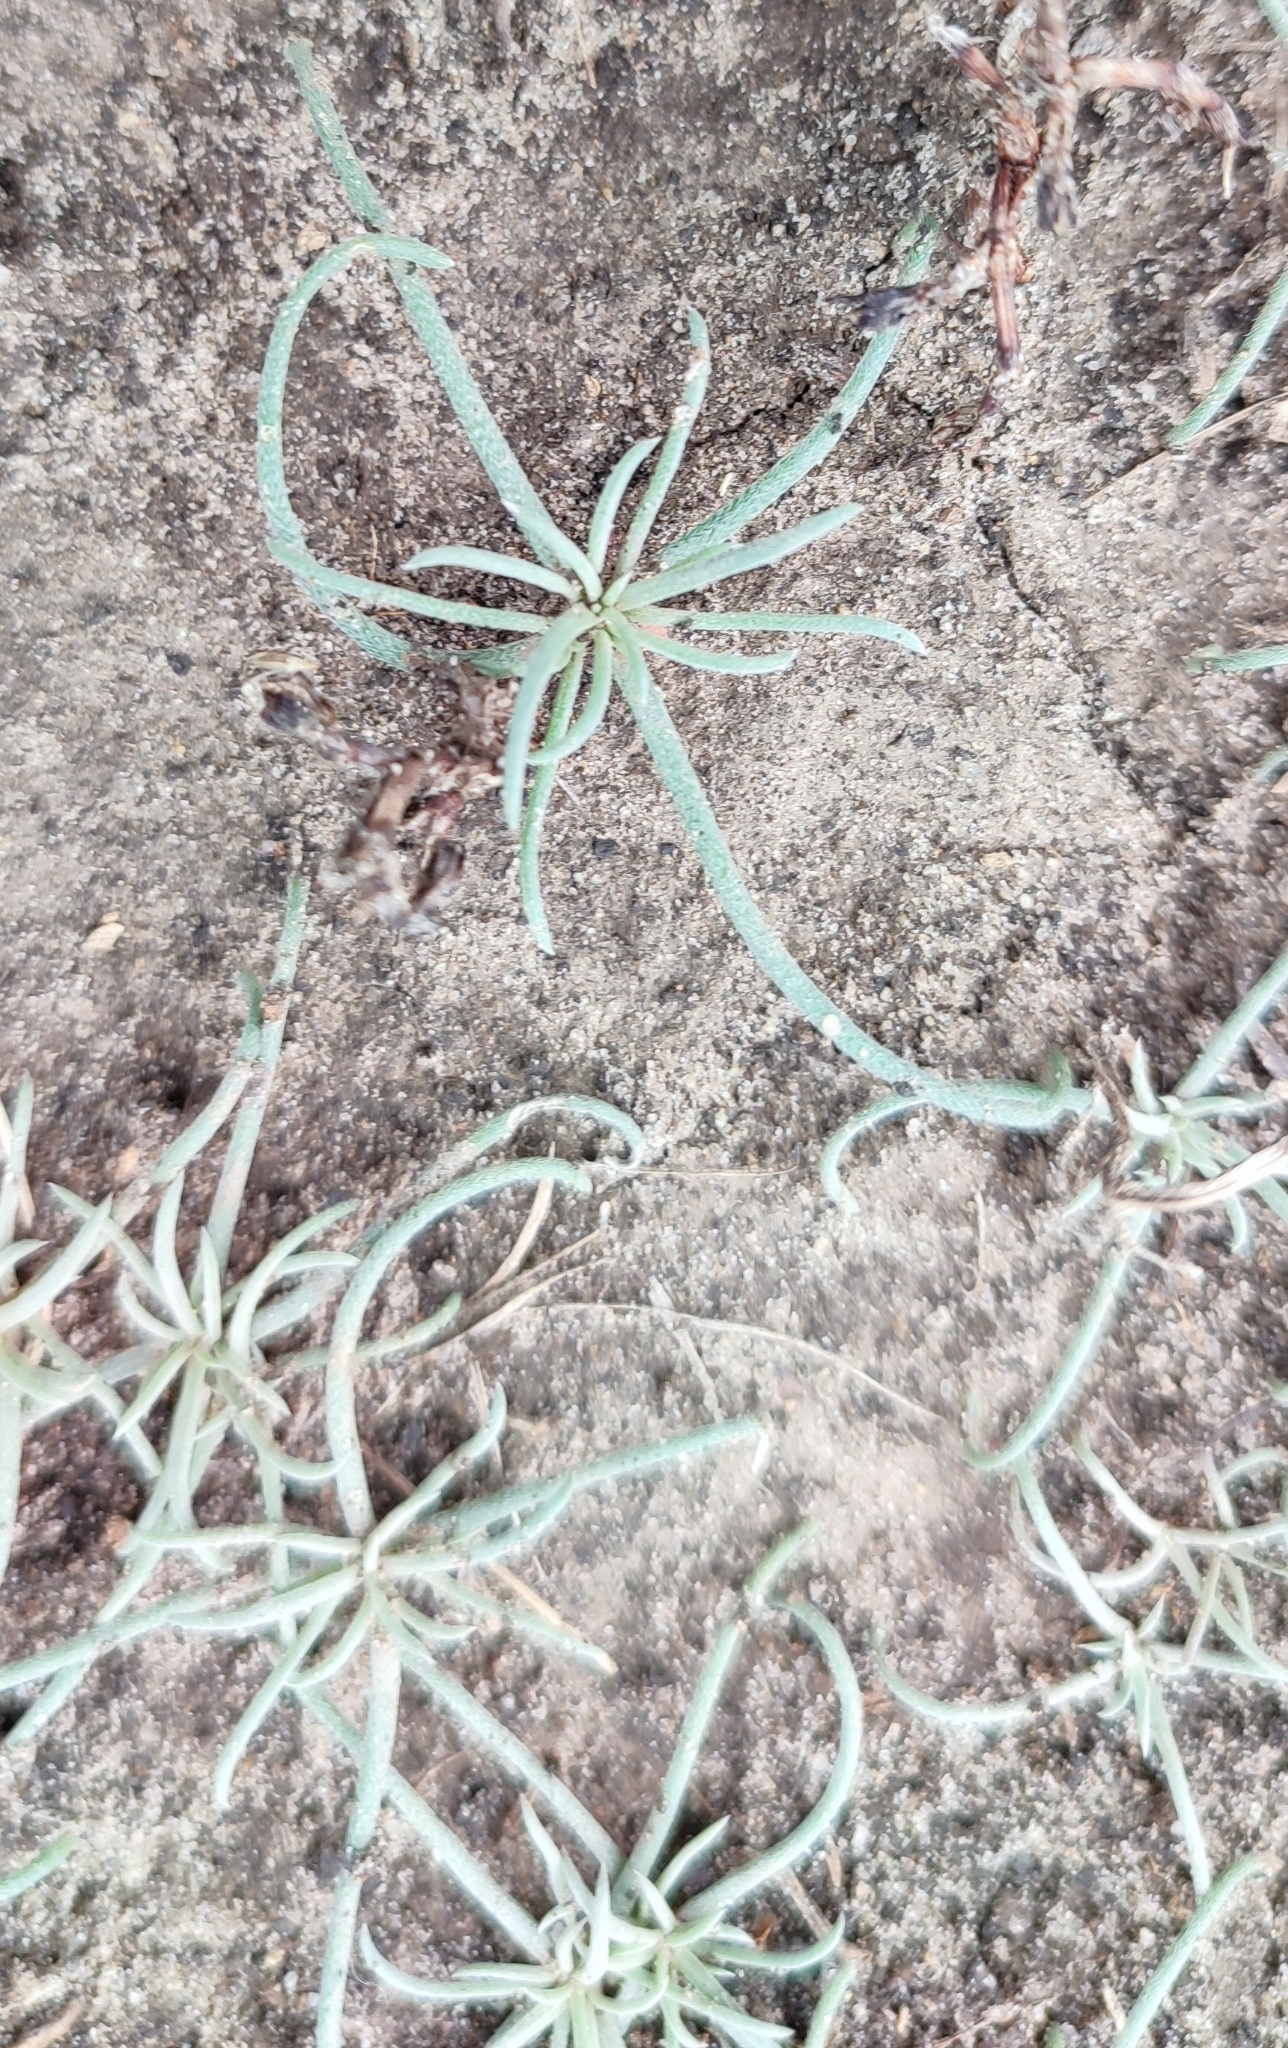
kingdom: Plantae
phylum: Tracheophyta
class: Magnoliopsida
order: Caryophyllales
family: Amaranthaceae
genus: Petrosimonia
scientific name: Petrosimonia litwinowii
